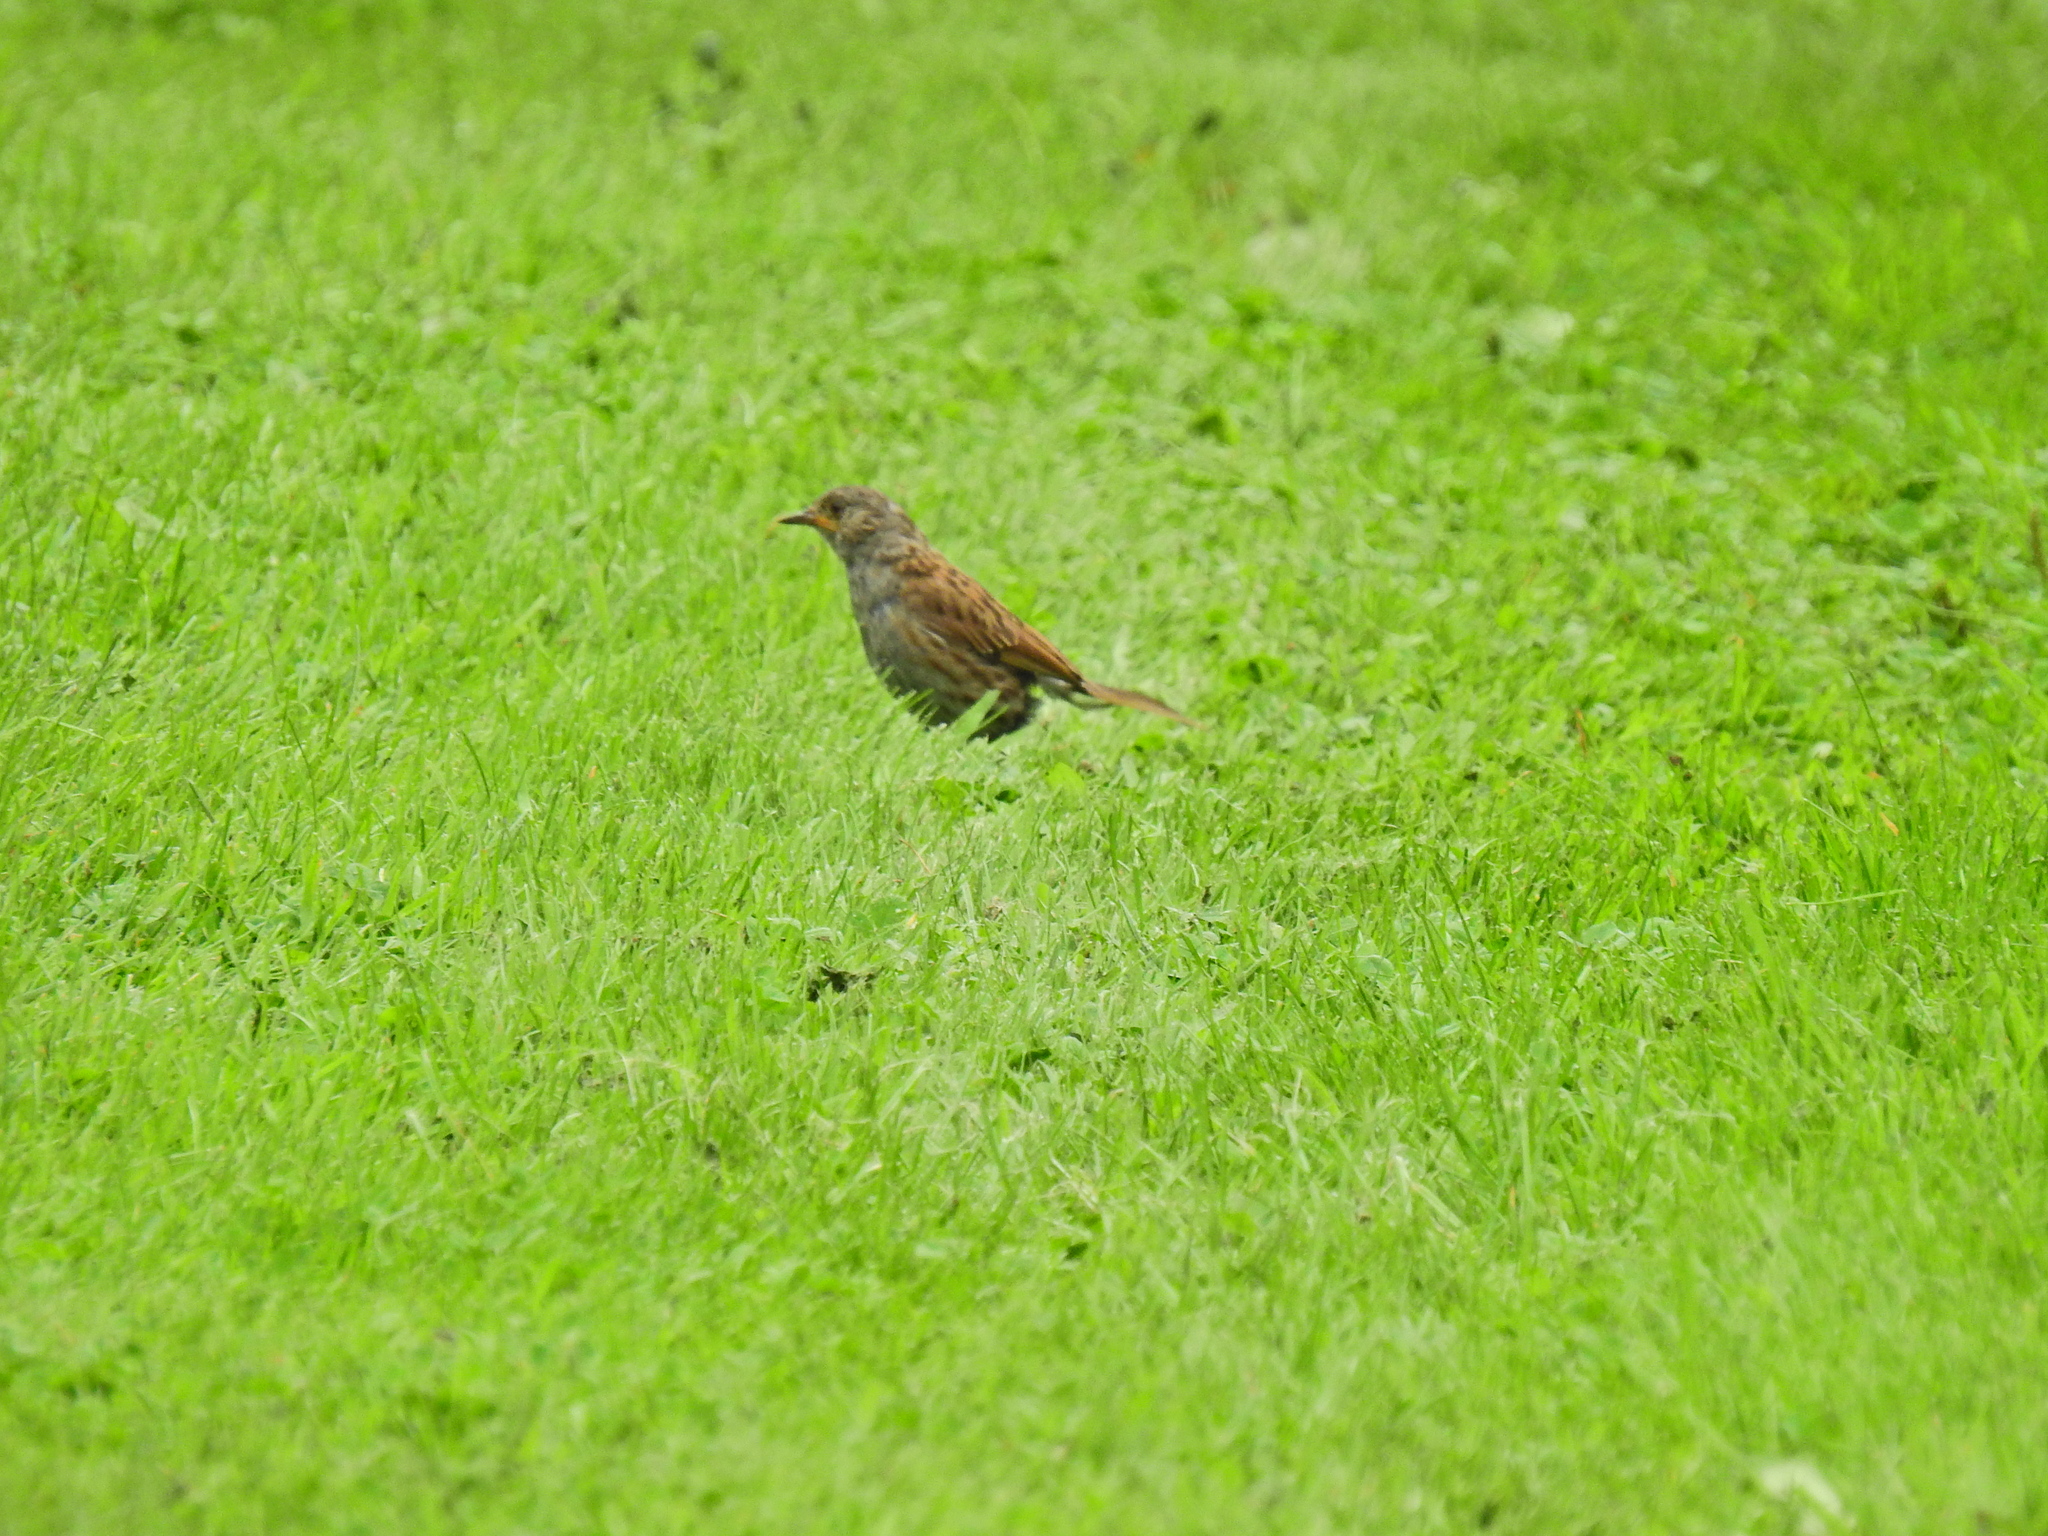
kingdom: Animalia
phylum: Chordata
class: Aves
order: Passeriformes
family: Prunellidae
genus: Prunella
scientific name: Prunella modularis
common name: Dunnock
